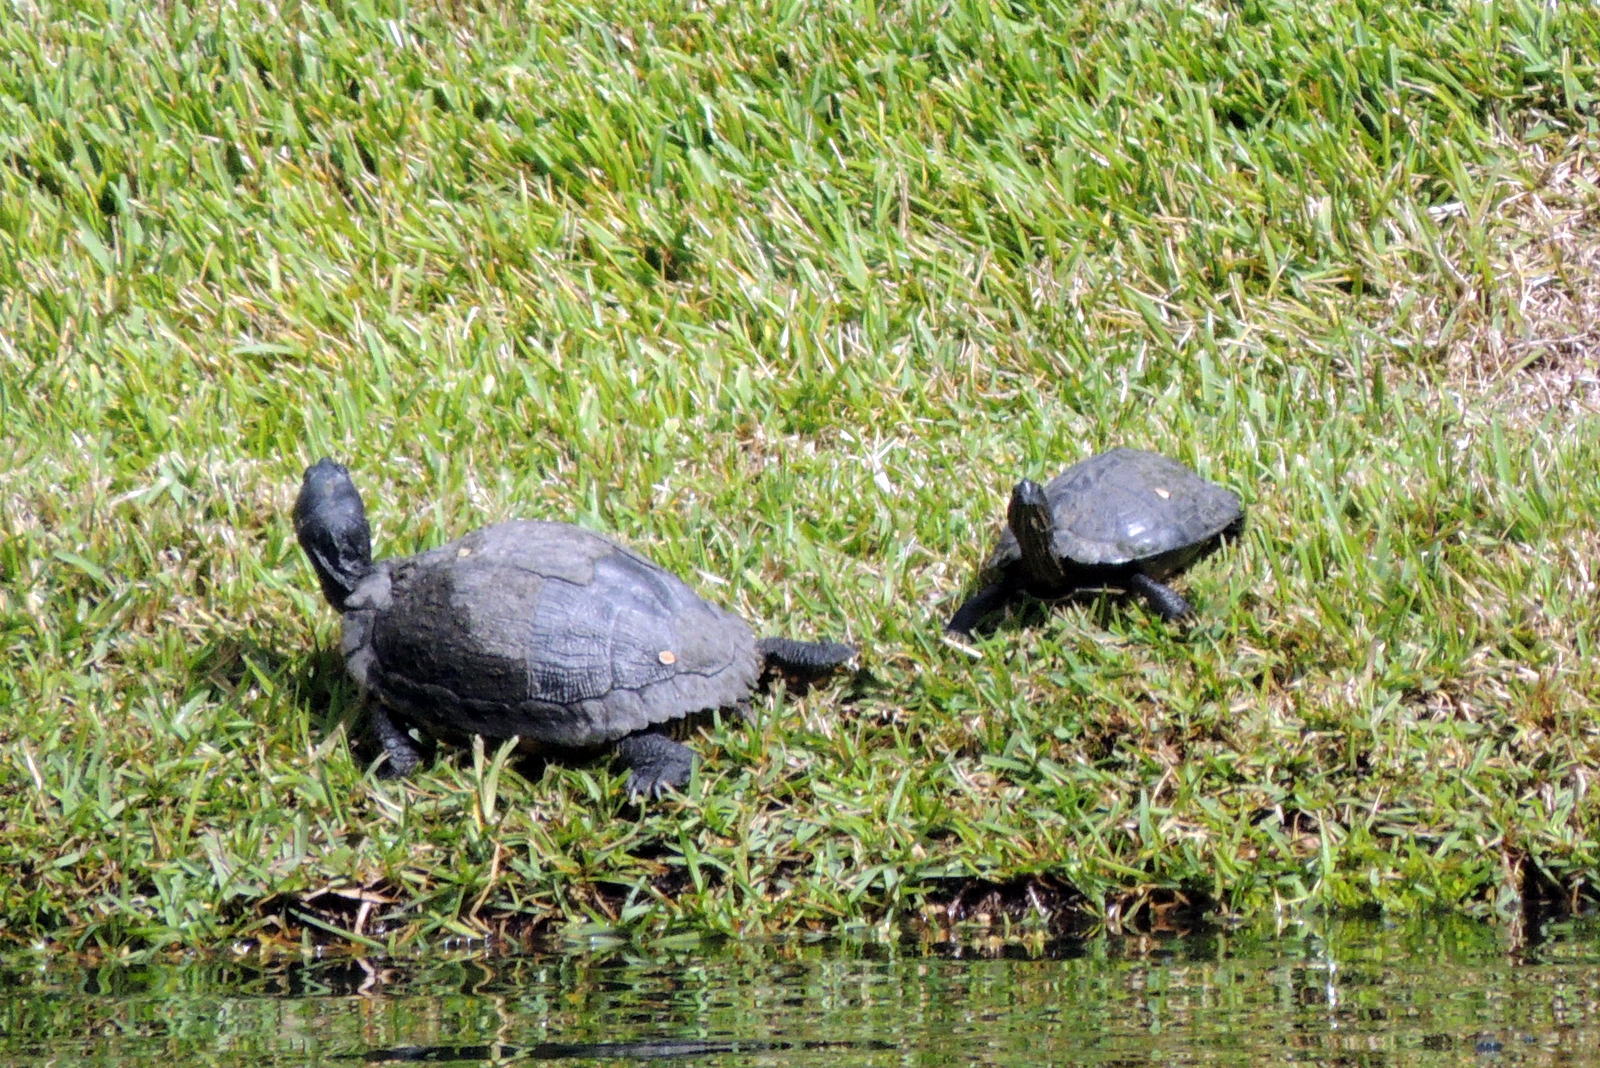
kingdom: Animalia
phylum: Chordata
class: Testudines
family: Emydidae
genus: Trachemys
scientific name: Trachemys scripta
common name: Slider
